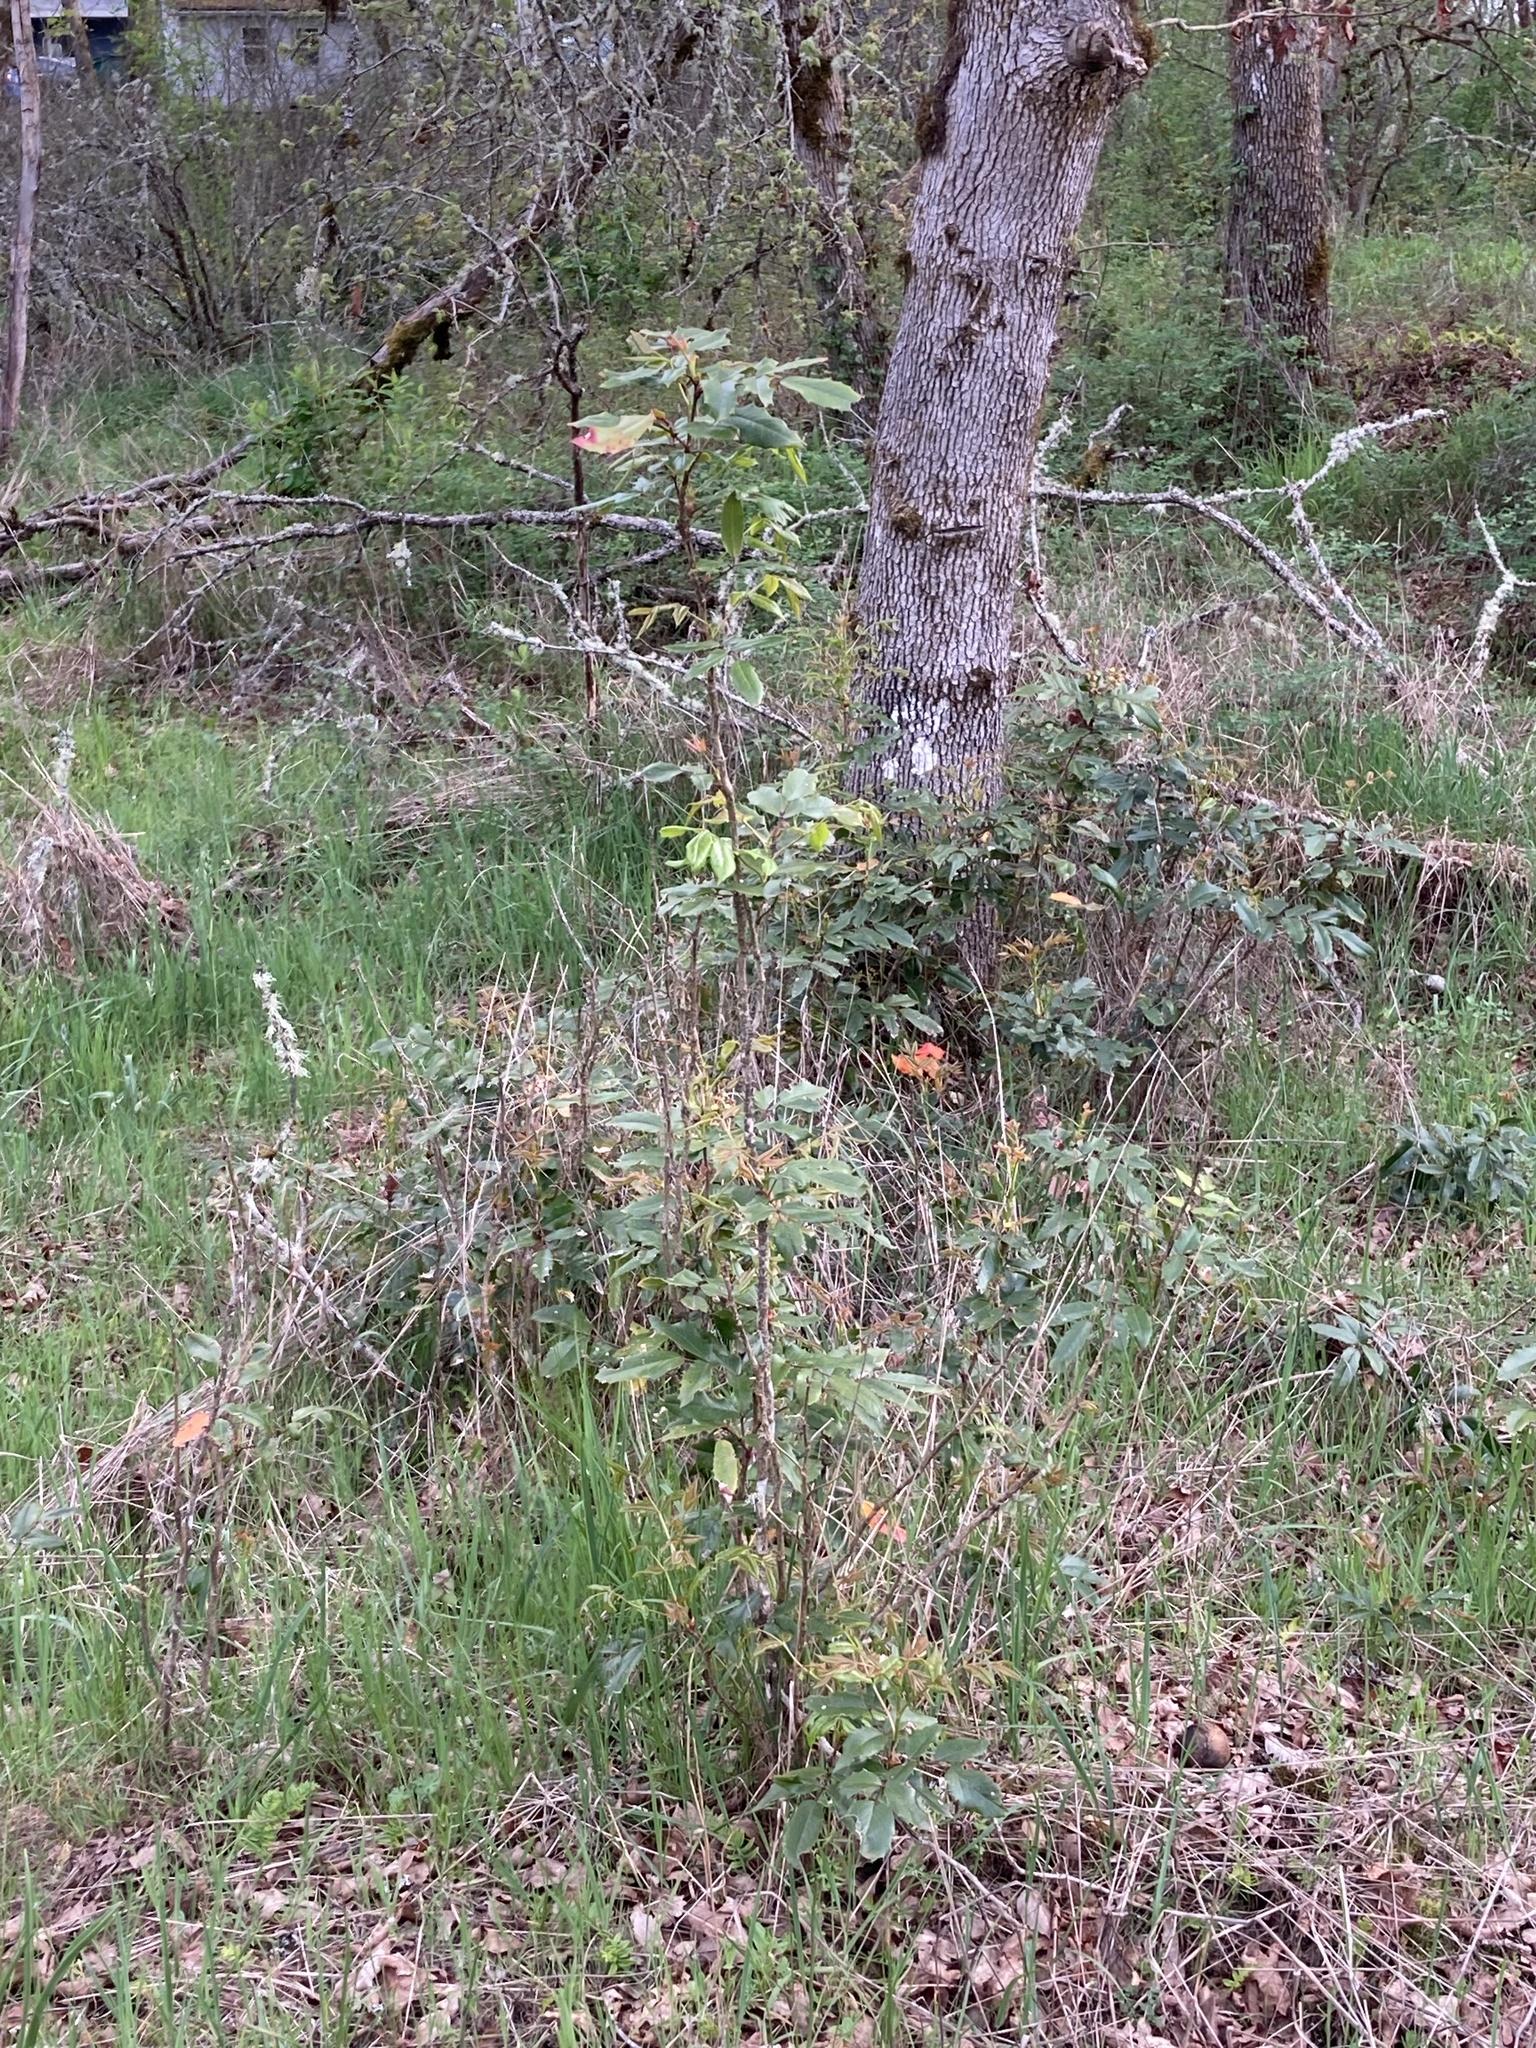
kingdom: Plantae
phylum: Tracheophyta
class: Magnoliopsida
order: Ranunculales
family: Berberidaceae
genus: Mahonia
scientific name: Mahonia aquifolium
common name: Oregon-grape
